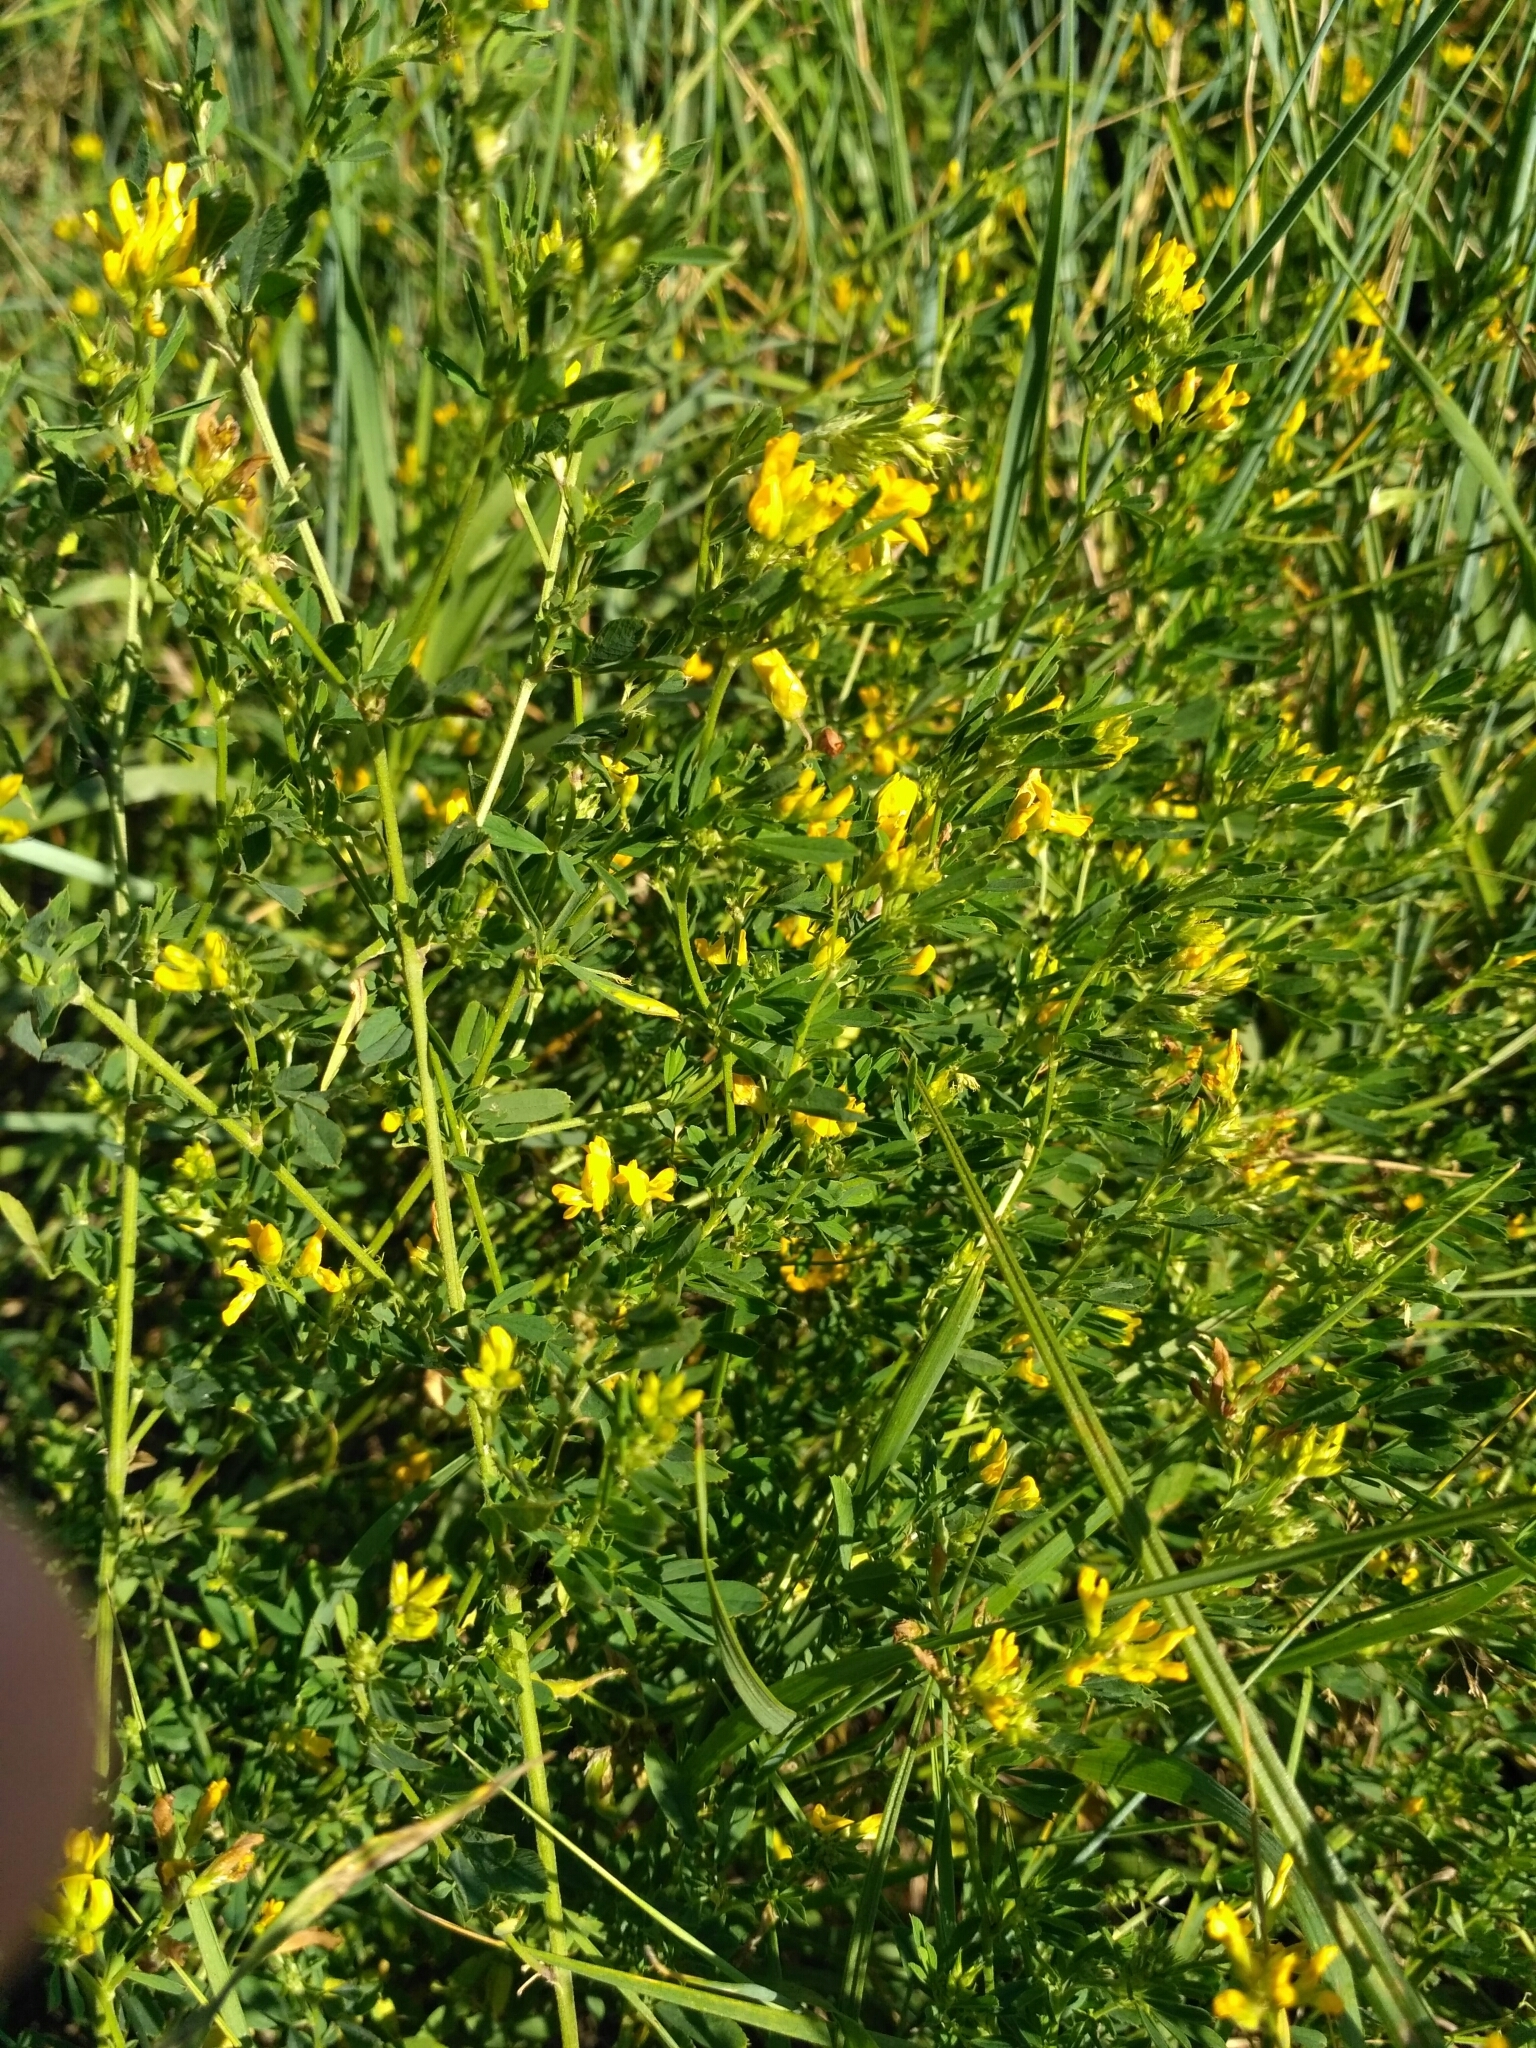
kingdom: Plantae
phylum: Tracheophyta
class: Magnoliopsida
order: Fabales
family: Fabaceae
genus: Medicago
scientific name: Medicago falcata
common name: Sickle medick
